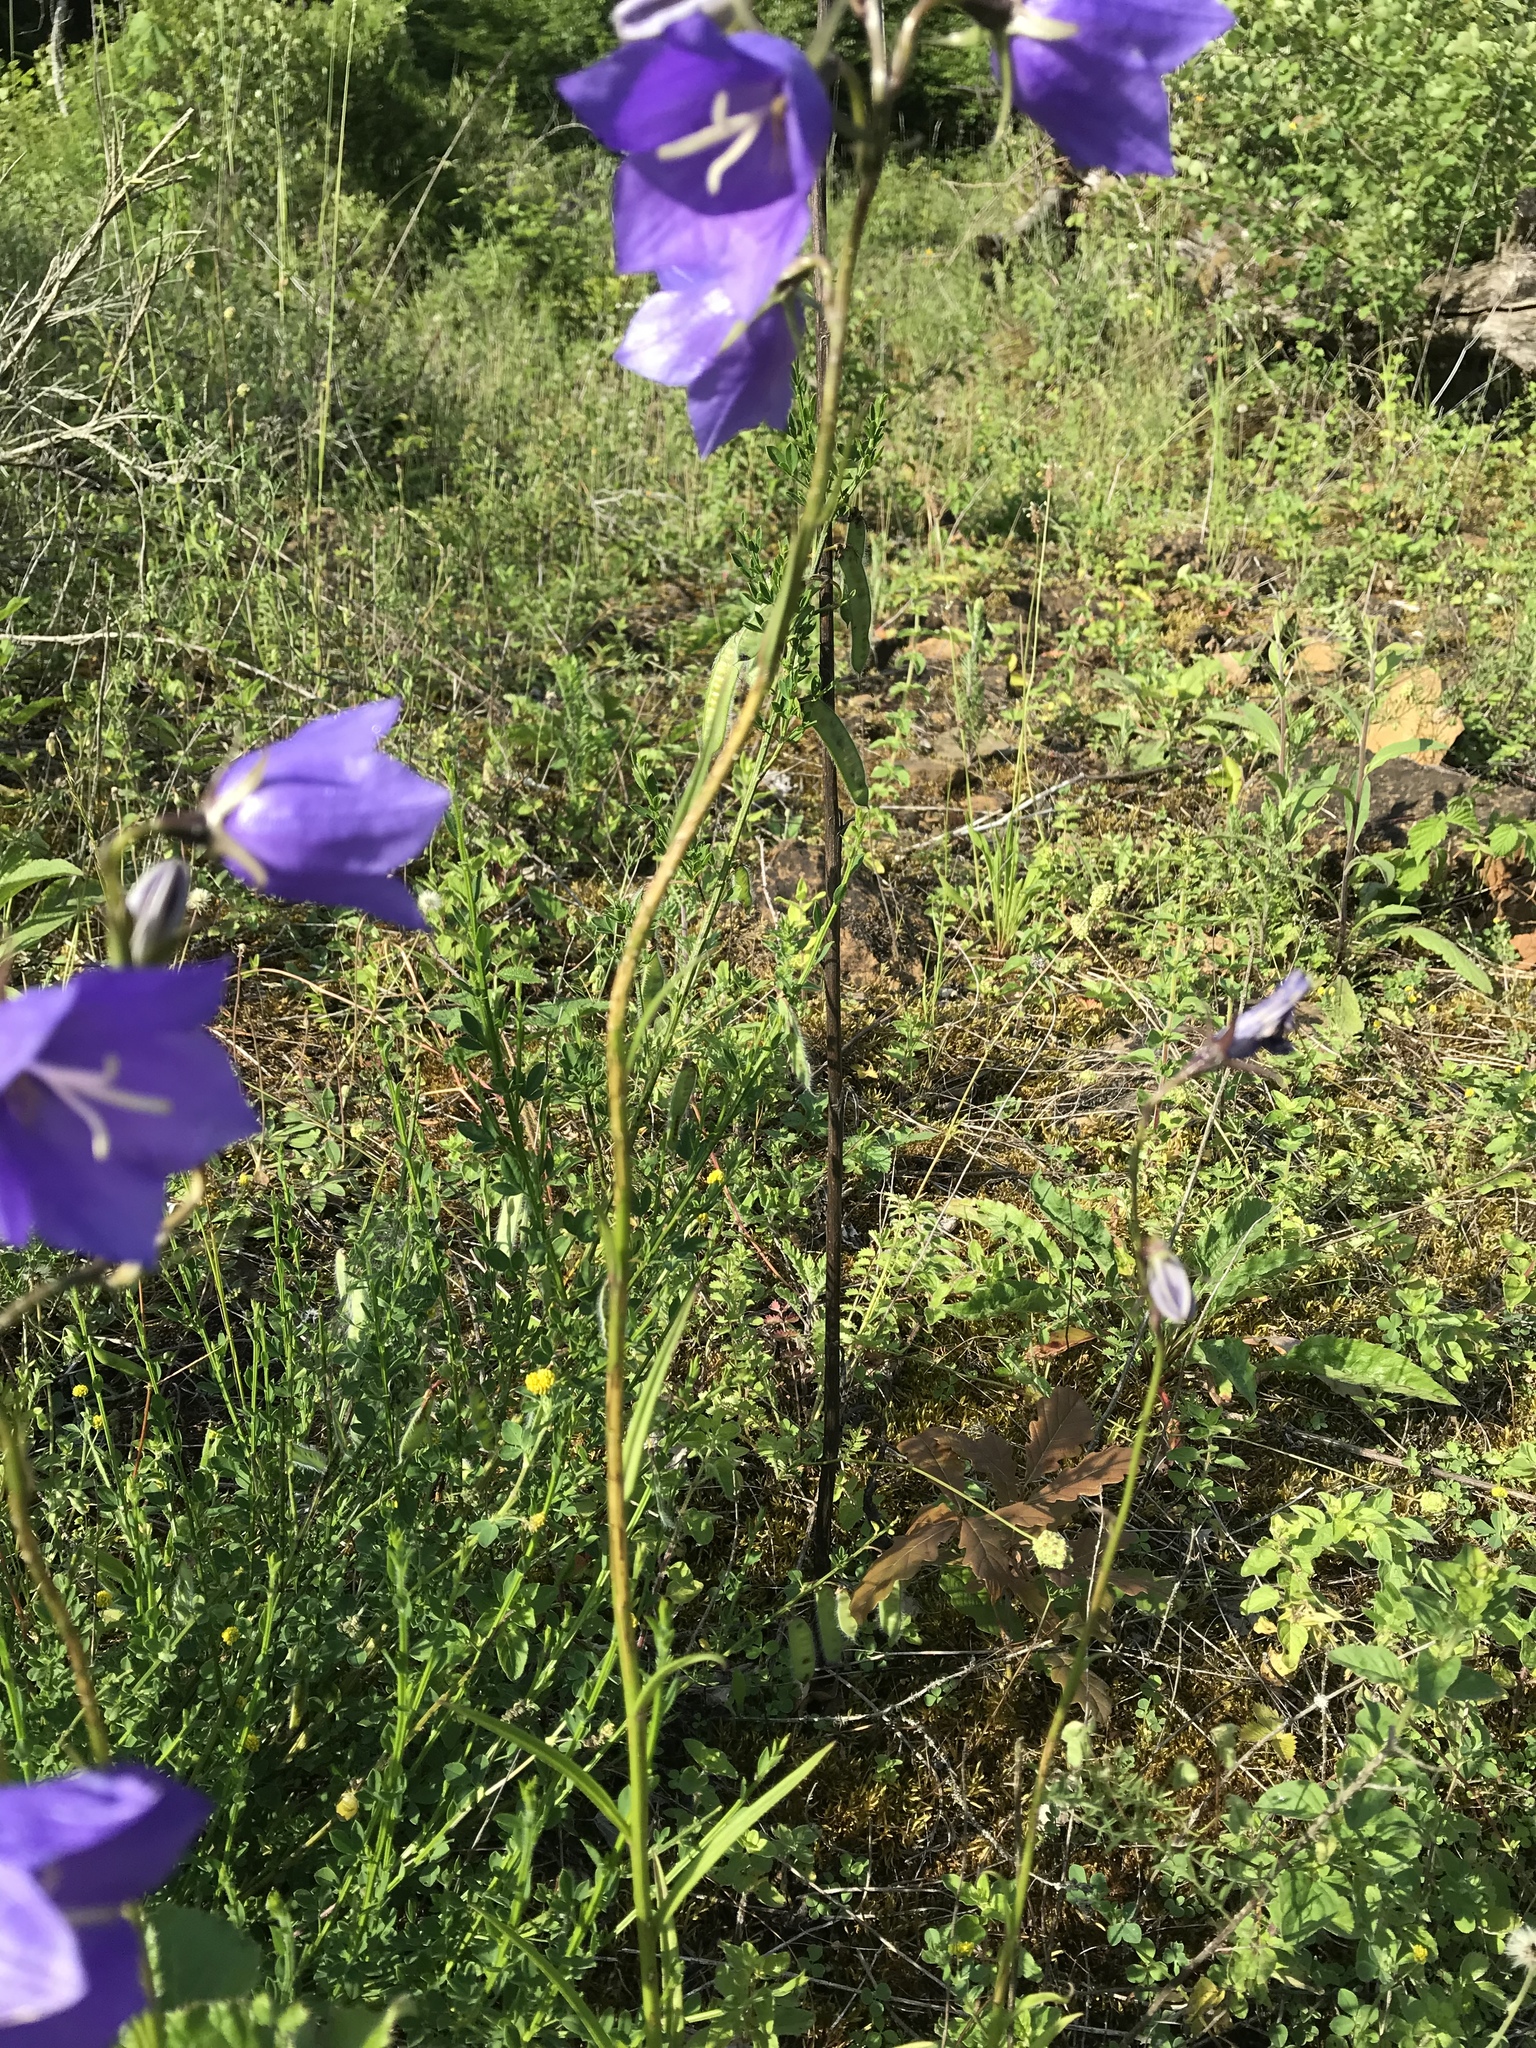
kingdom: Plantae
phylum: Tracheophyta
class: Magnoliopsida
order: Asterales
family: Campanulaceae
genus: Campanula
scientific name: Campanula persicifolia
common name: Peach-leaved bellflower
